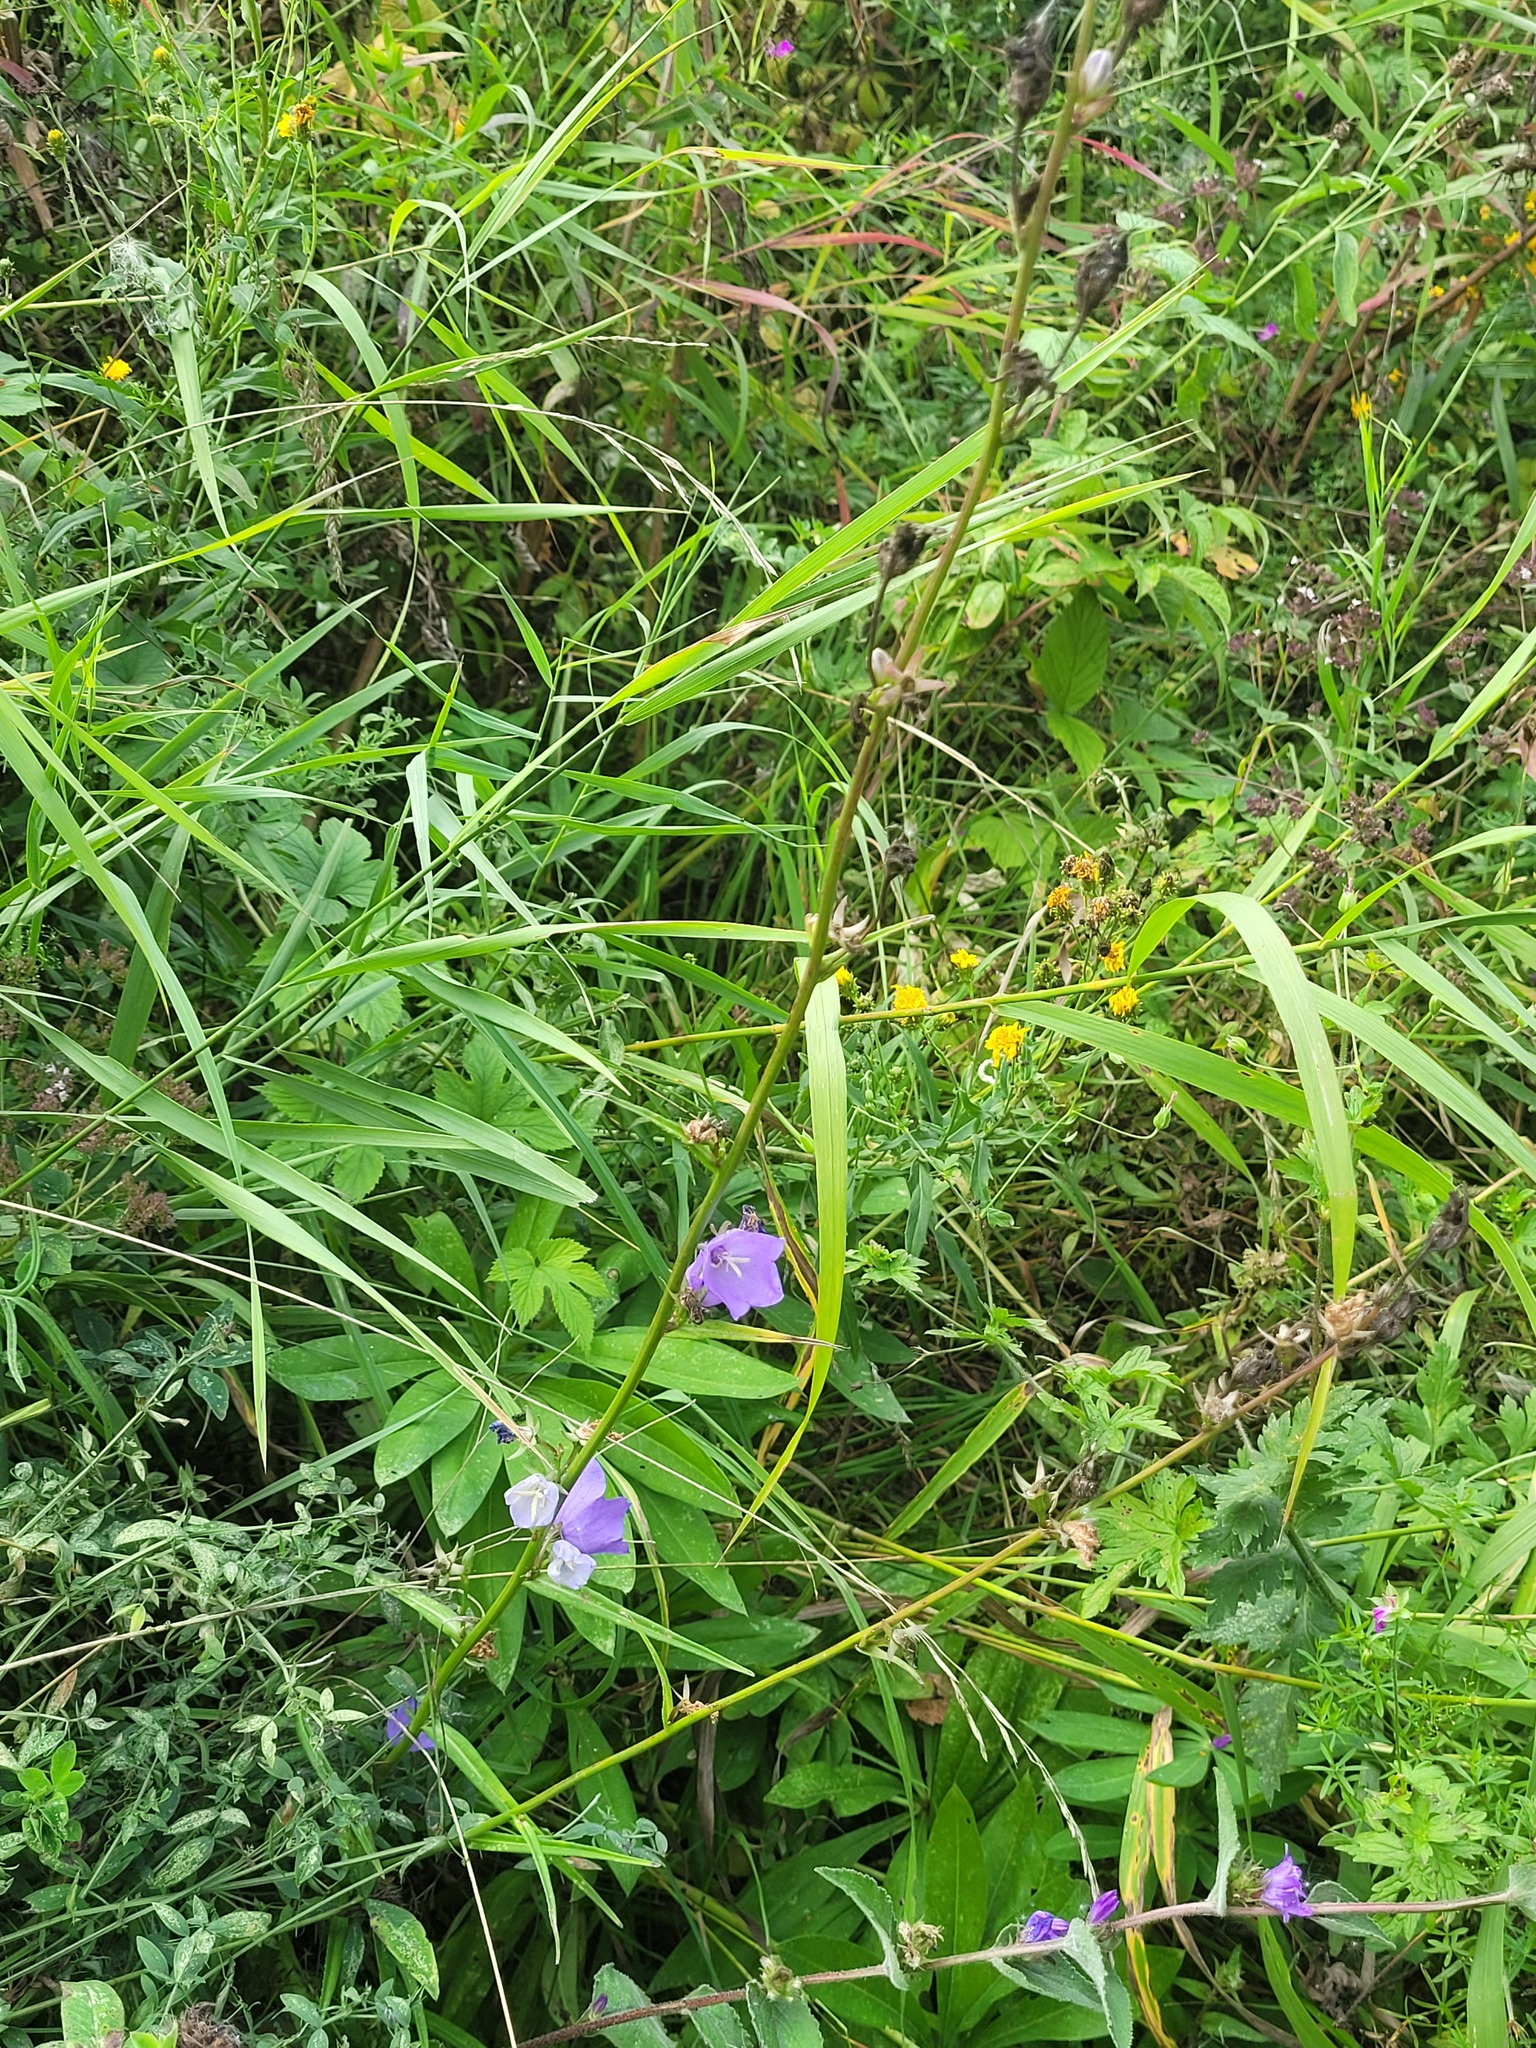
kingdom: Plantae
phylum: Tracheophyta
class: Magnoliopsida
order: Asterales
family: Campanulaceae
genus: Campanula
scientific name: Campanula persicifolia
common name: Peach-leaved bellflower
